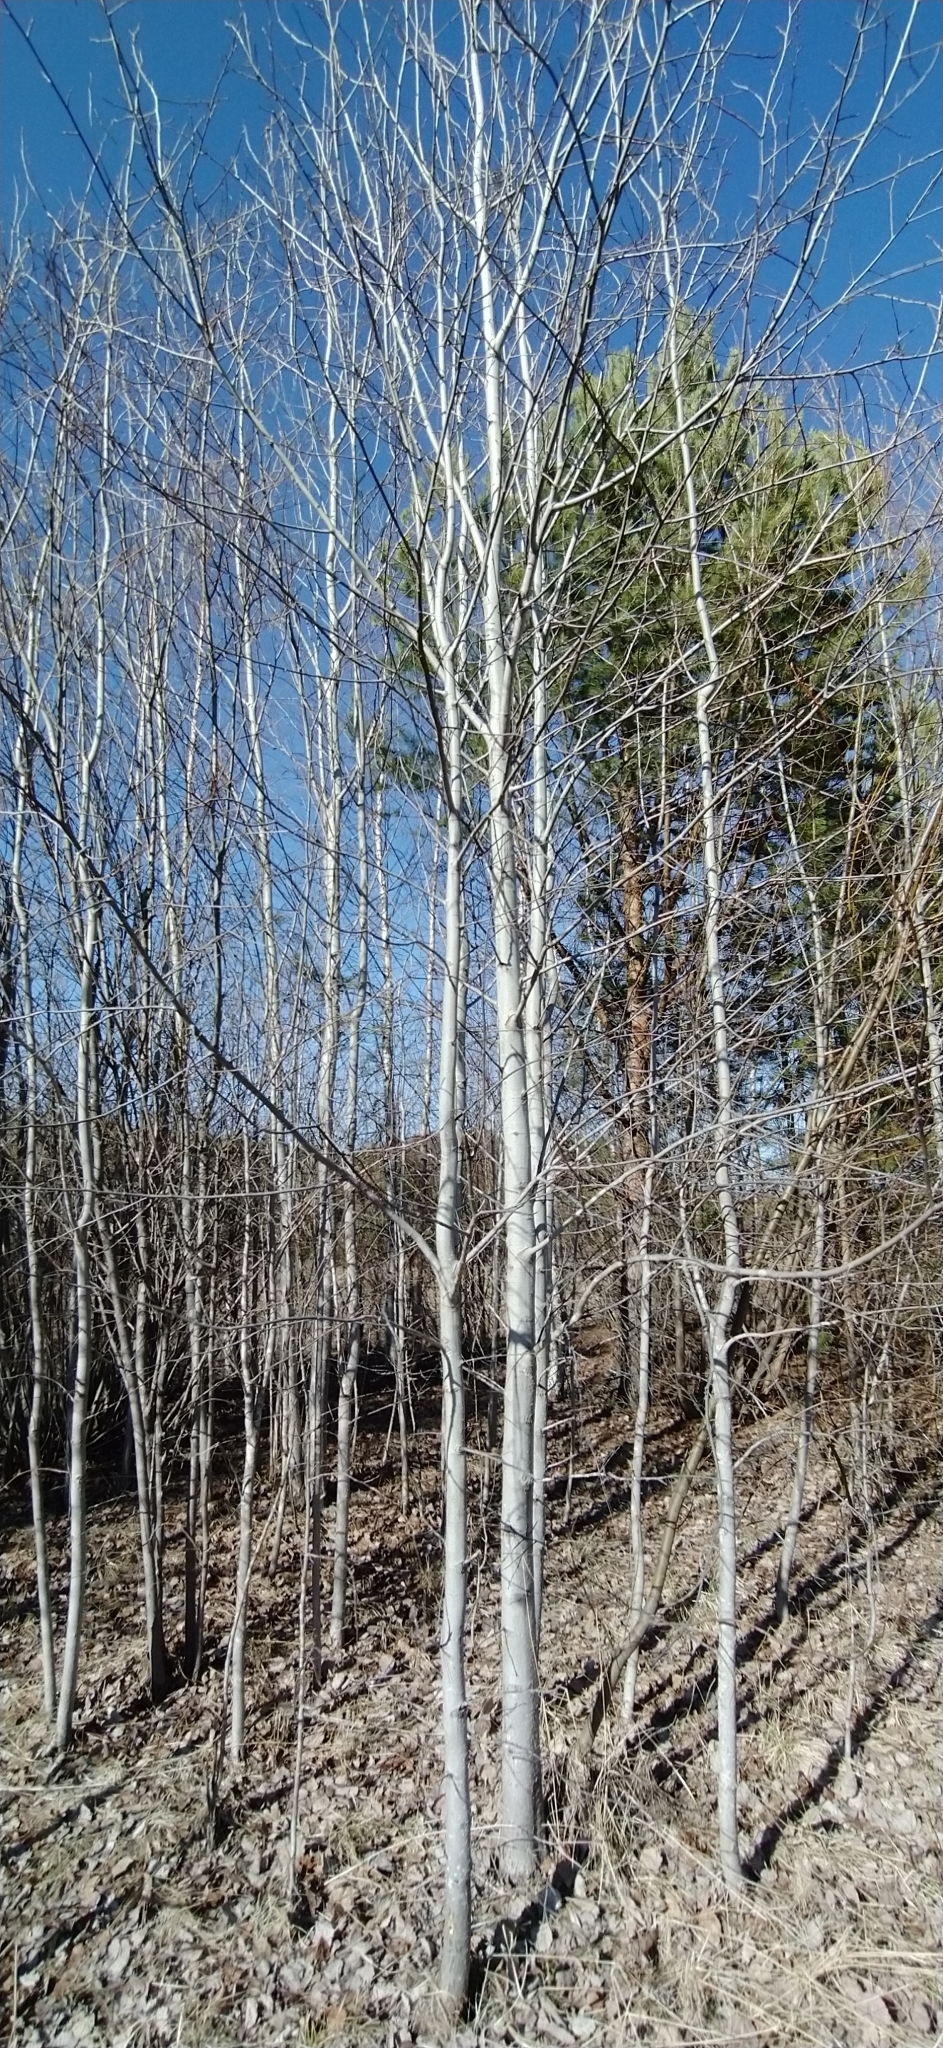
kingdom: Plantae
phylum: Tracheophyta
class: Magnoliopsida
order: Malpighiales
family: Salicaceae
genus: Populus
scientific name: Populus tremula
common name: European aspen
